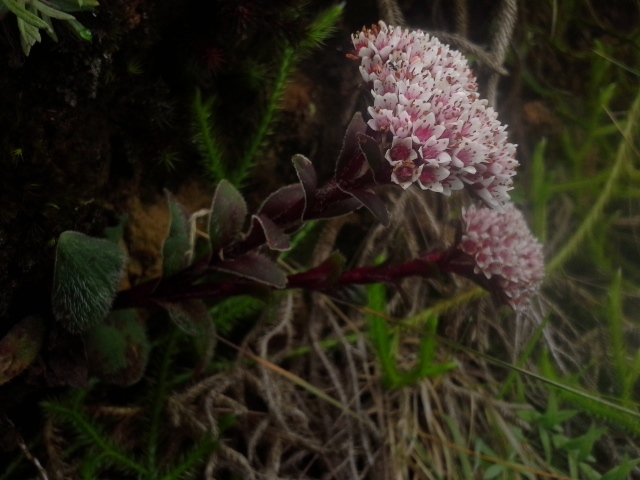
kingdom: Plantae
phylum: Tracheophyta
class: Magnoliopsida
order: Saxifragales
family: Crassulaceae
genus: Crassula
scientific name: Crassula natalensis
